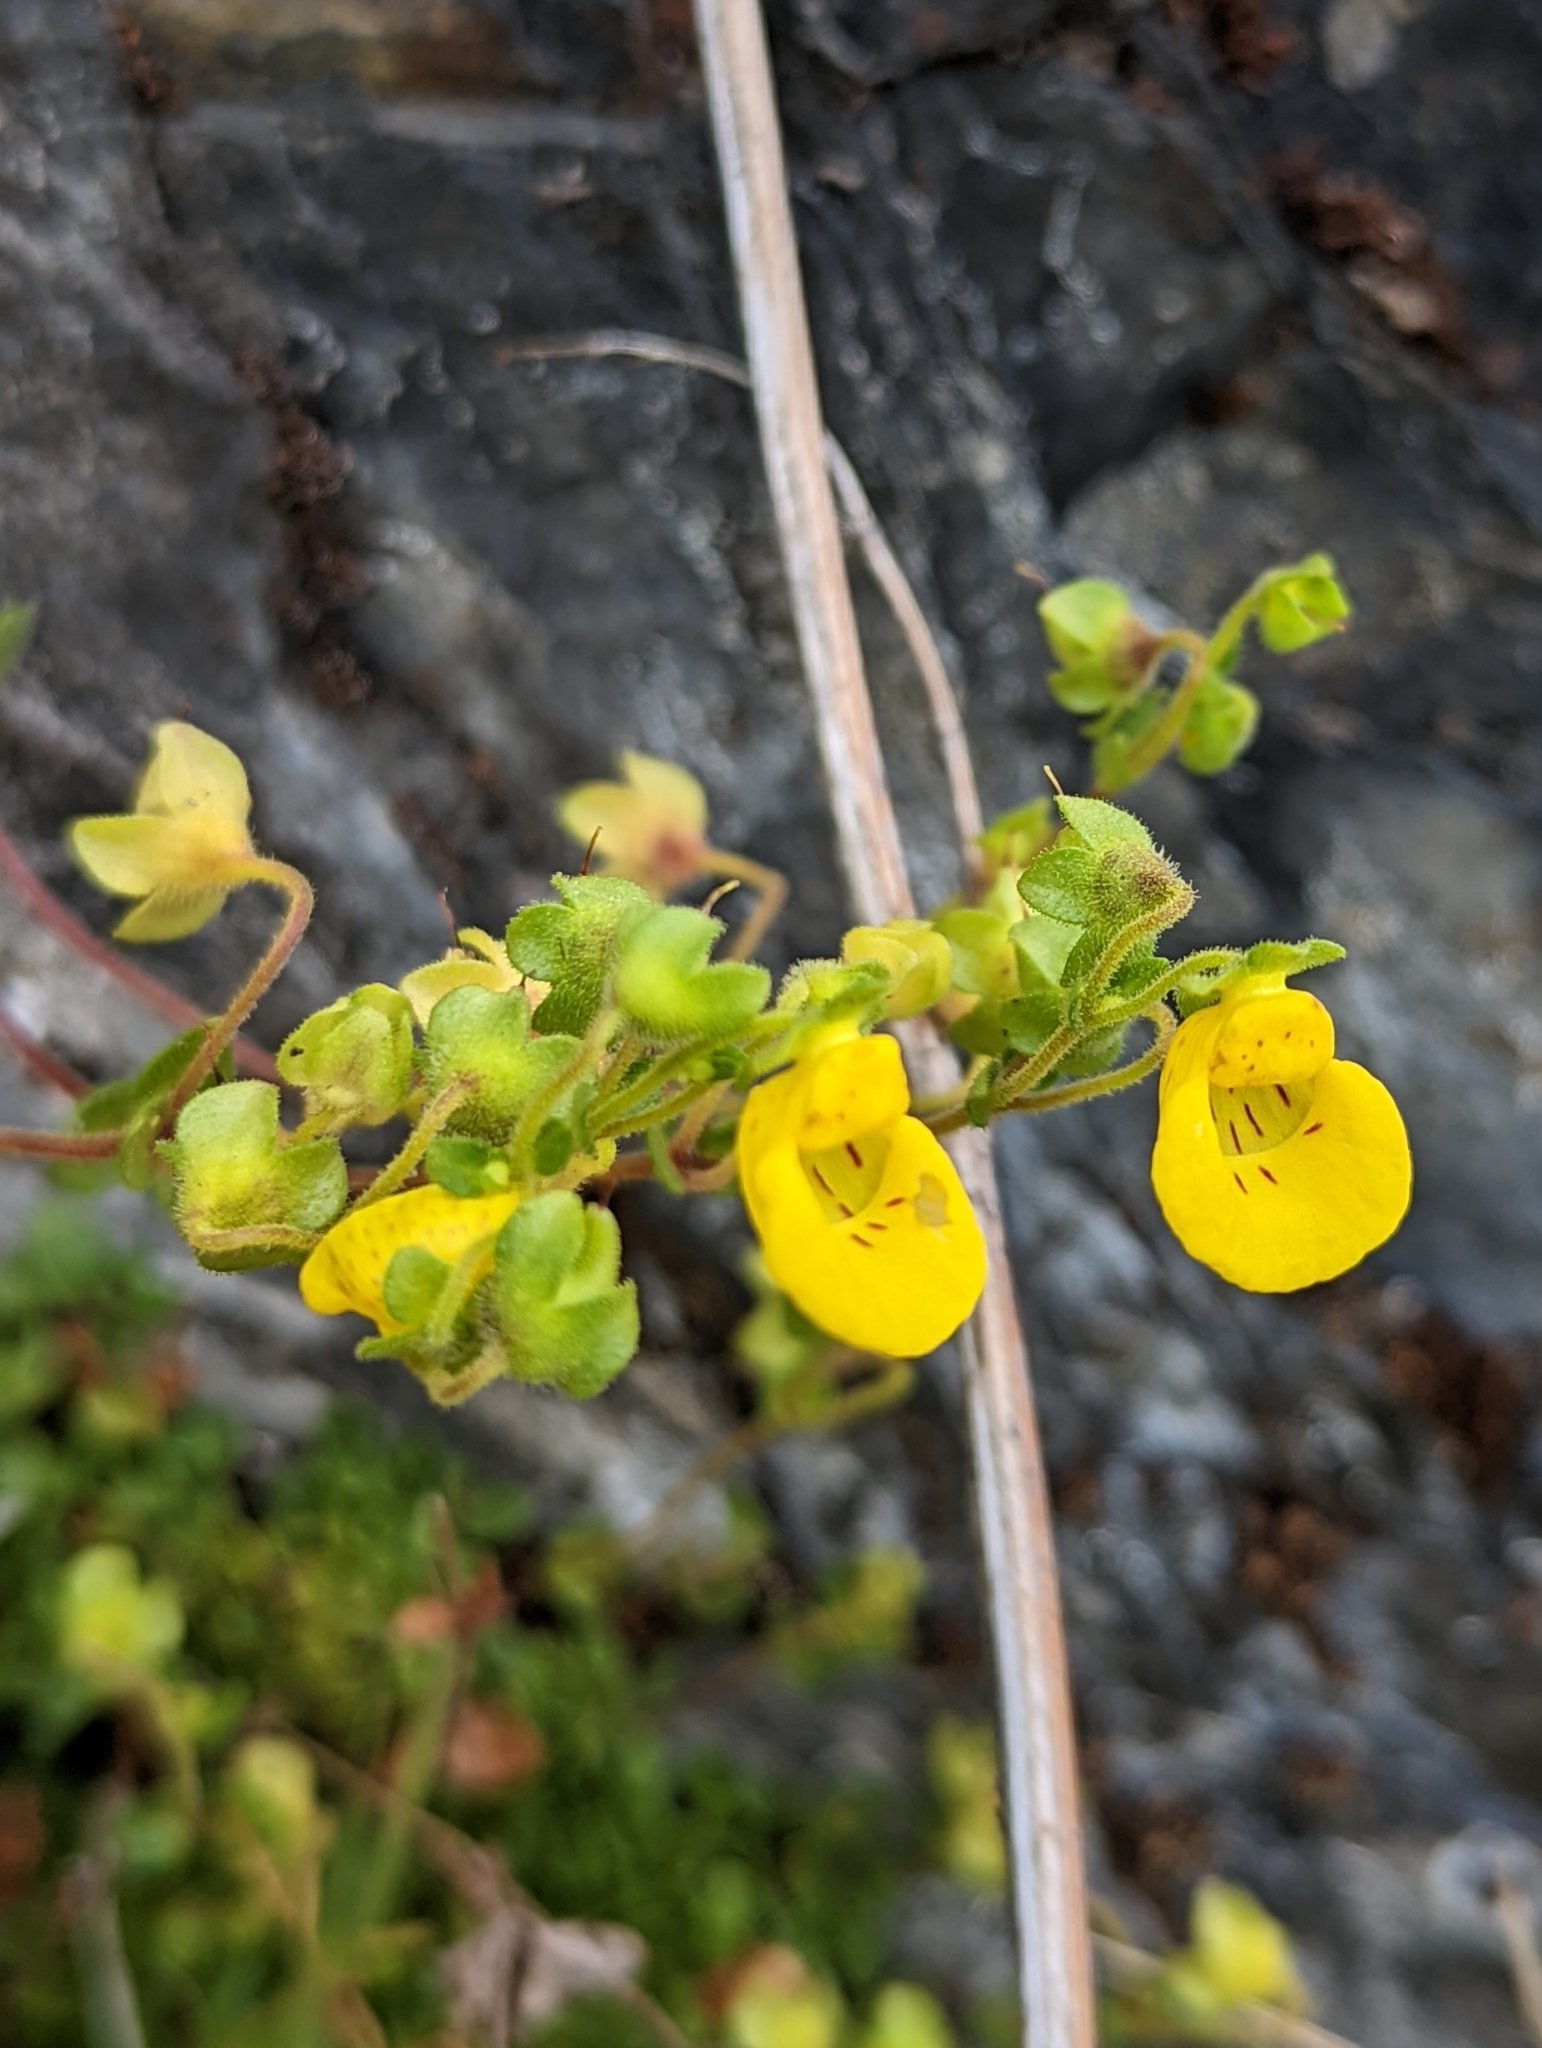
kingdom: Plantae
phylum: Tracheophyta
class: Magnoliopsida
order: Lamiales
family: Calceolariaceae
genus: Calceolaria
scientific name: Calceolaria tenella
